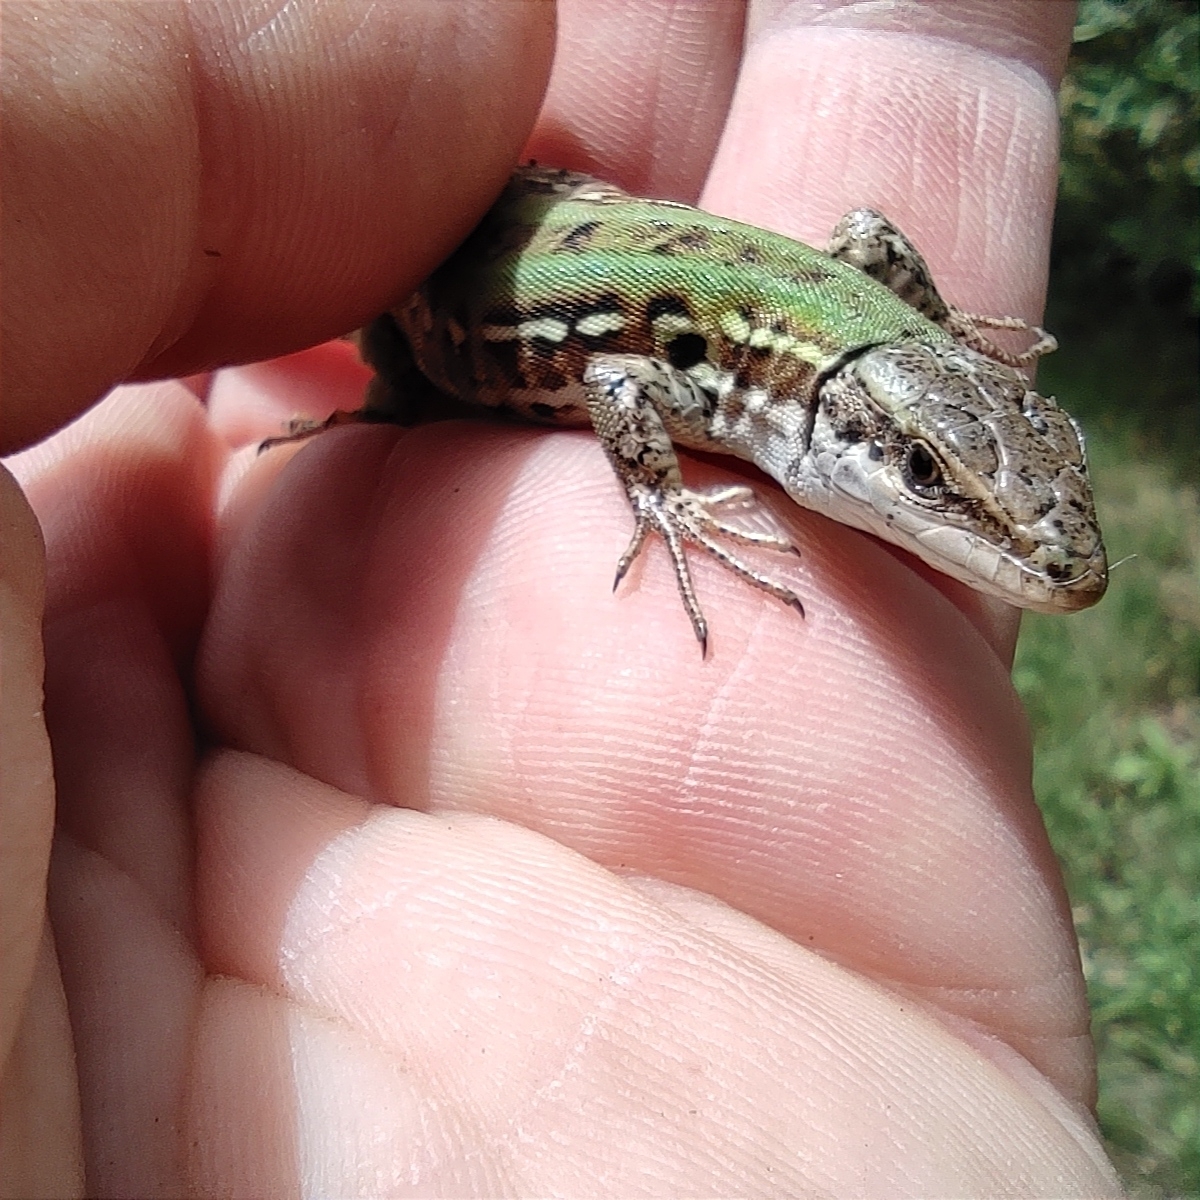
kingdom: Animalia
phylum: Chordata
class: Squamata
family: Lacertidae
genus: Podarcis
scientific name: Podarcis siculus
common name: Italian wall lizard
